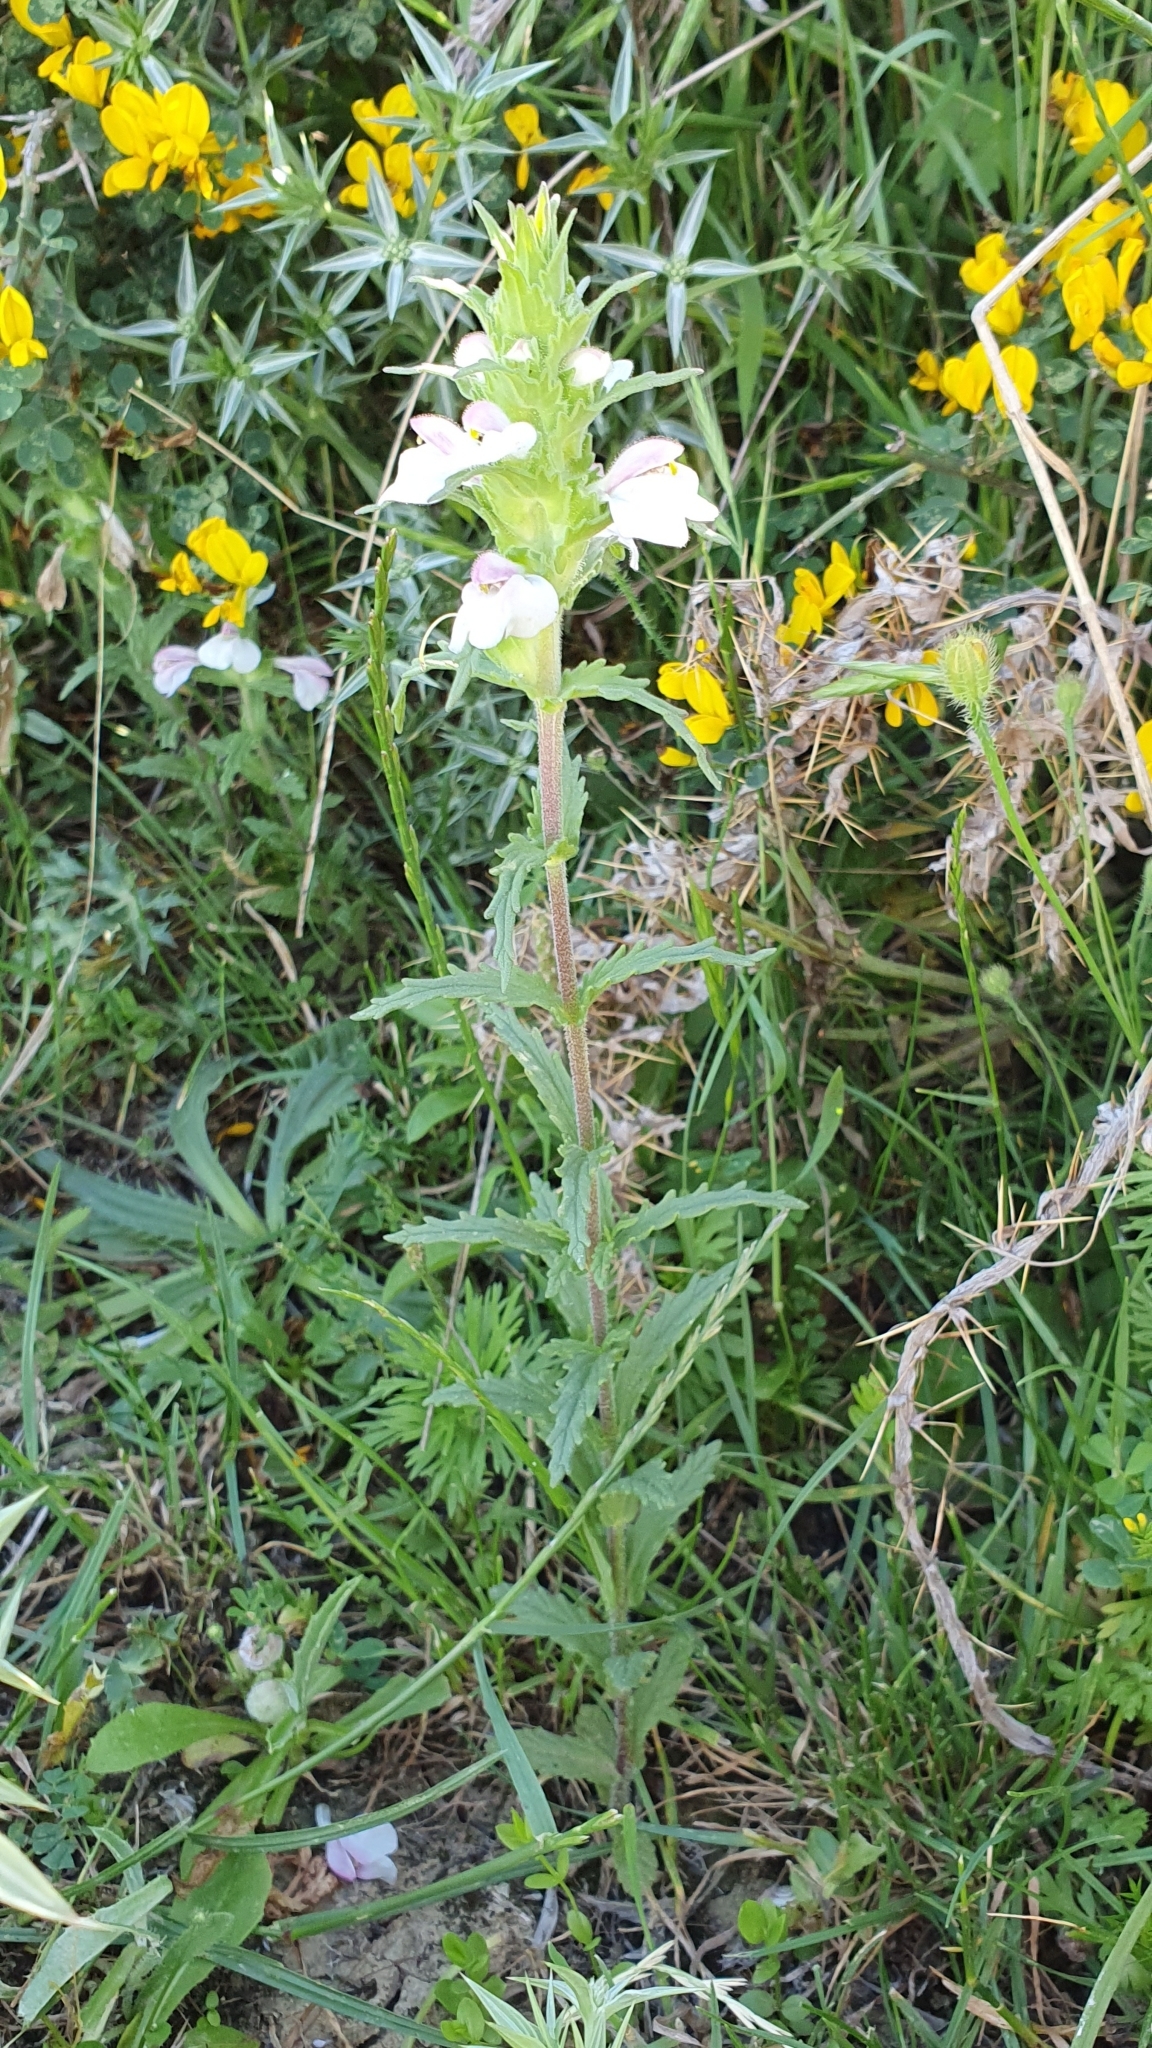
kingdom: Plantae
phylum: Tracheophyta
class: Magnoliopsida
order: Lamiales
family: Orobanchaceae
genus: Bellardia
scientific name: Bellardia trixago
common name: Mediterranean lineseed
